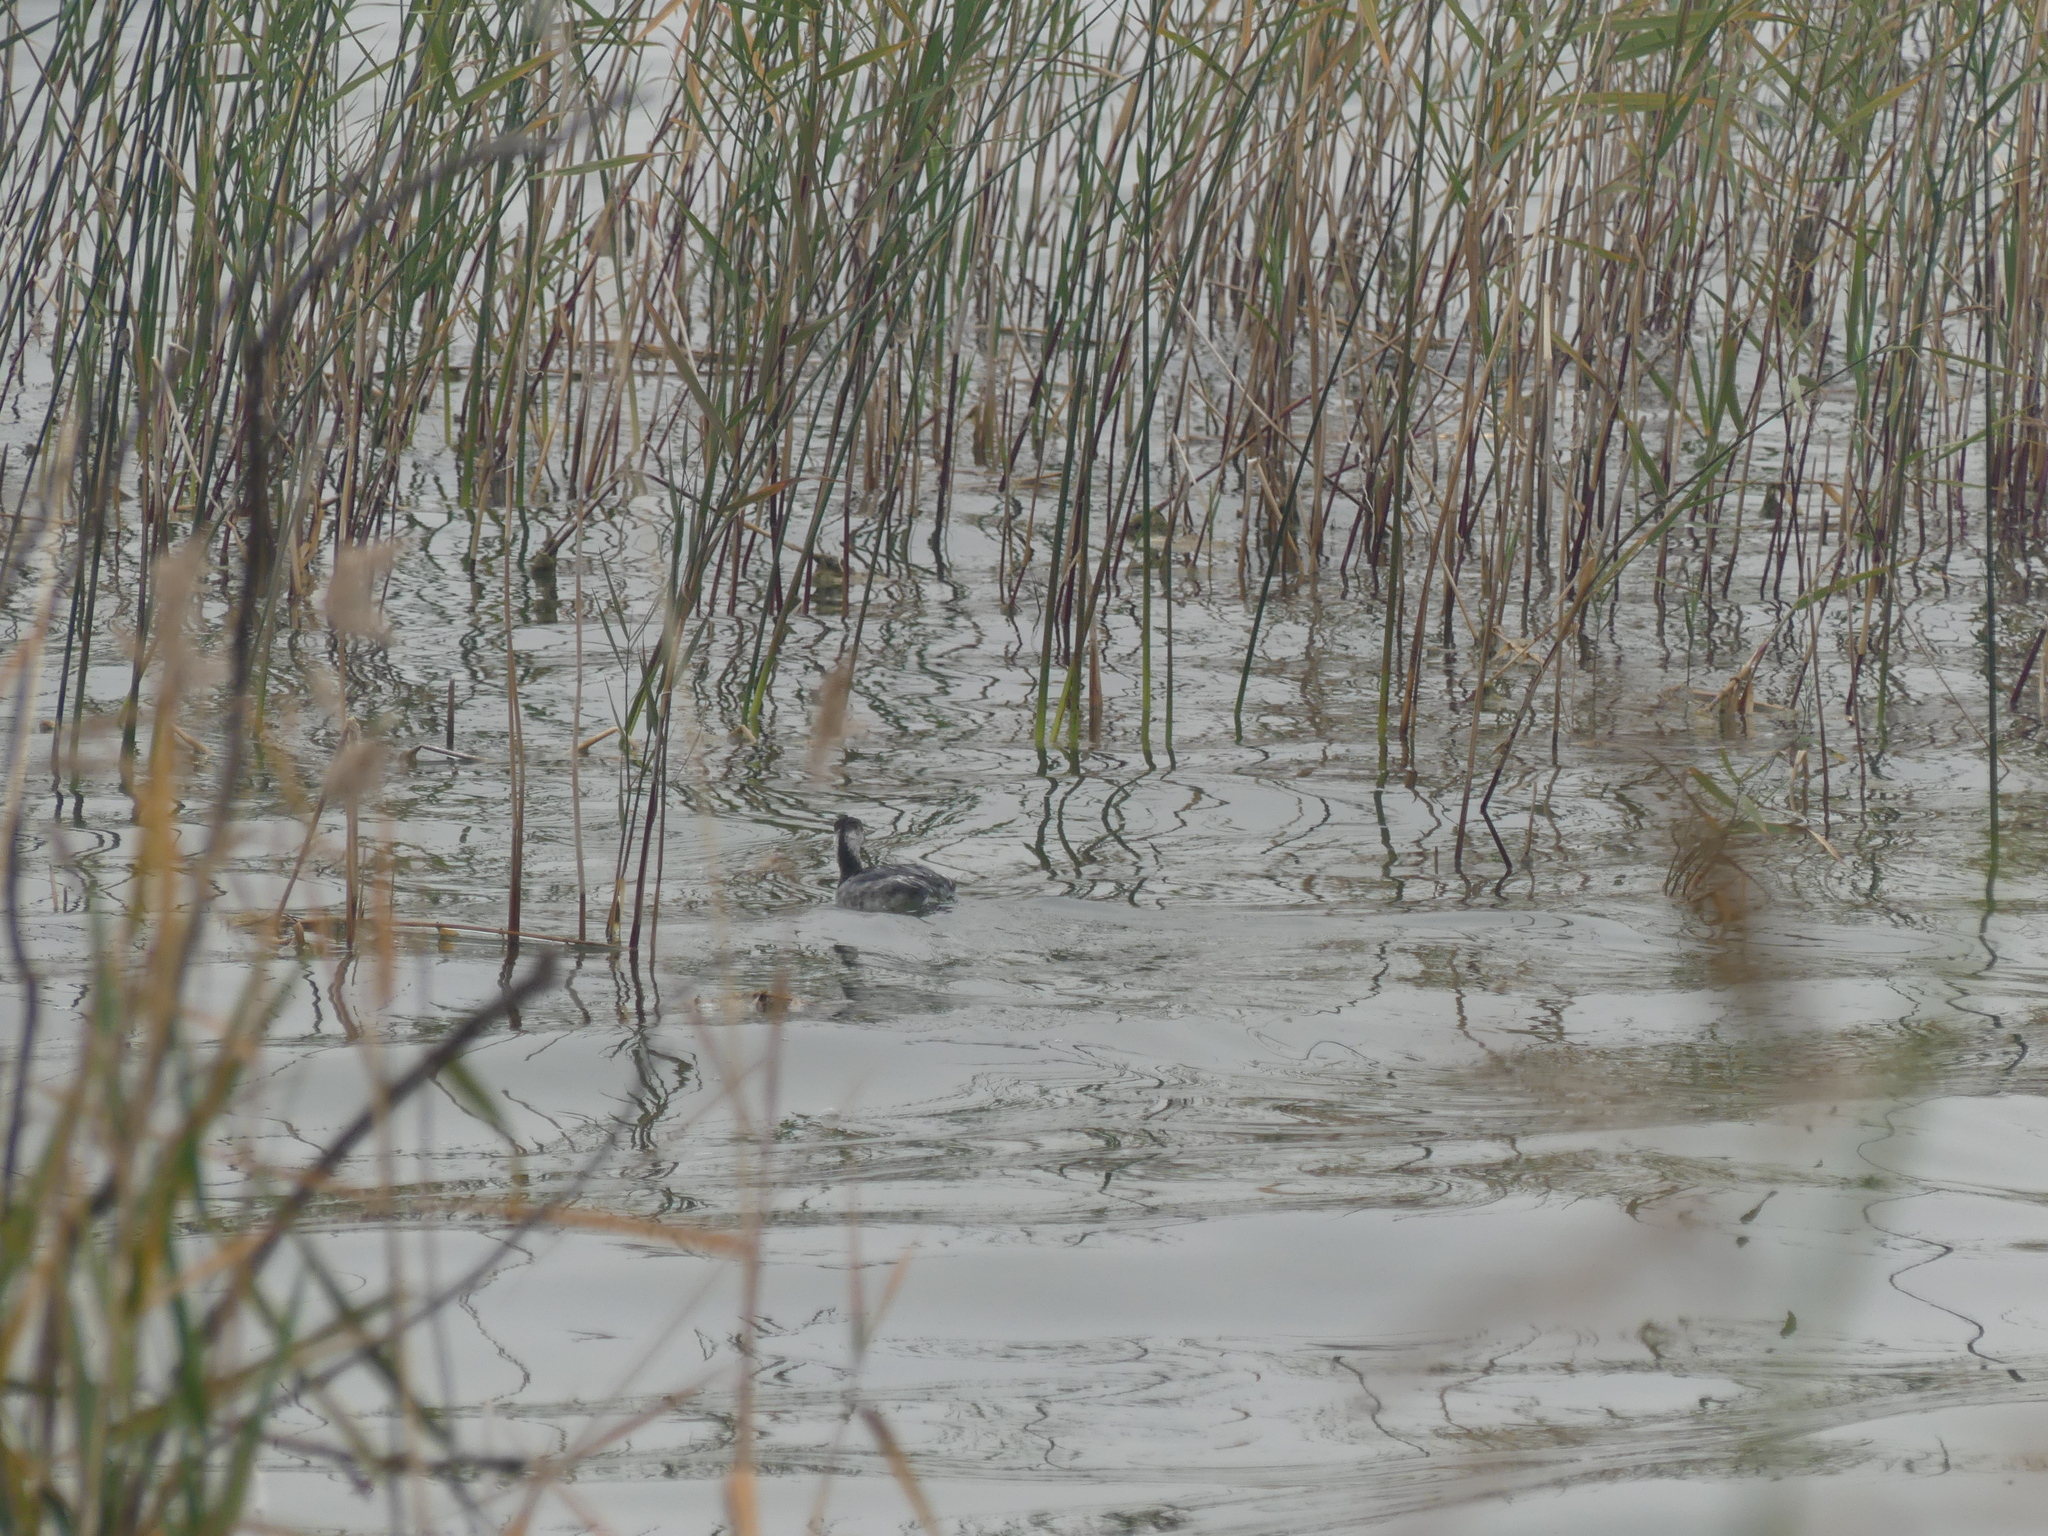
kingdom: Animalia
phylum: Chordata
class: Aves
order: Podicipediformes
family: Podicipedidae
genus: Podiceps
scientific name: Podiceps grisegena
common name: Red-necked grebe
